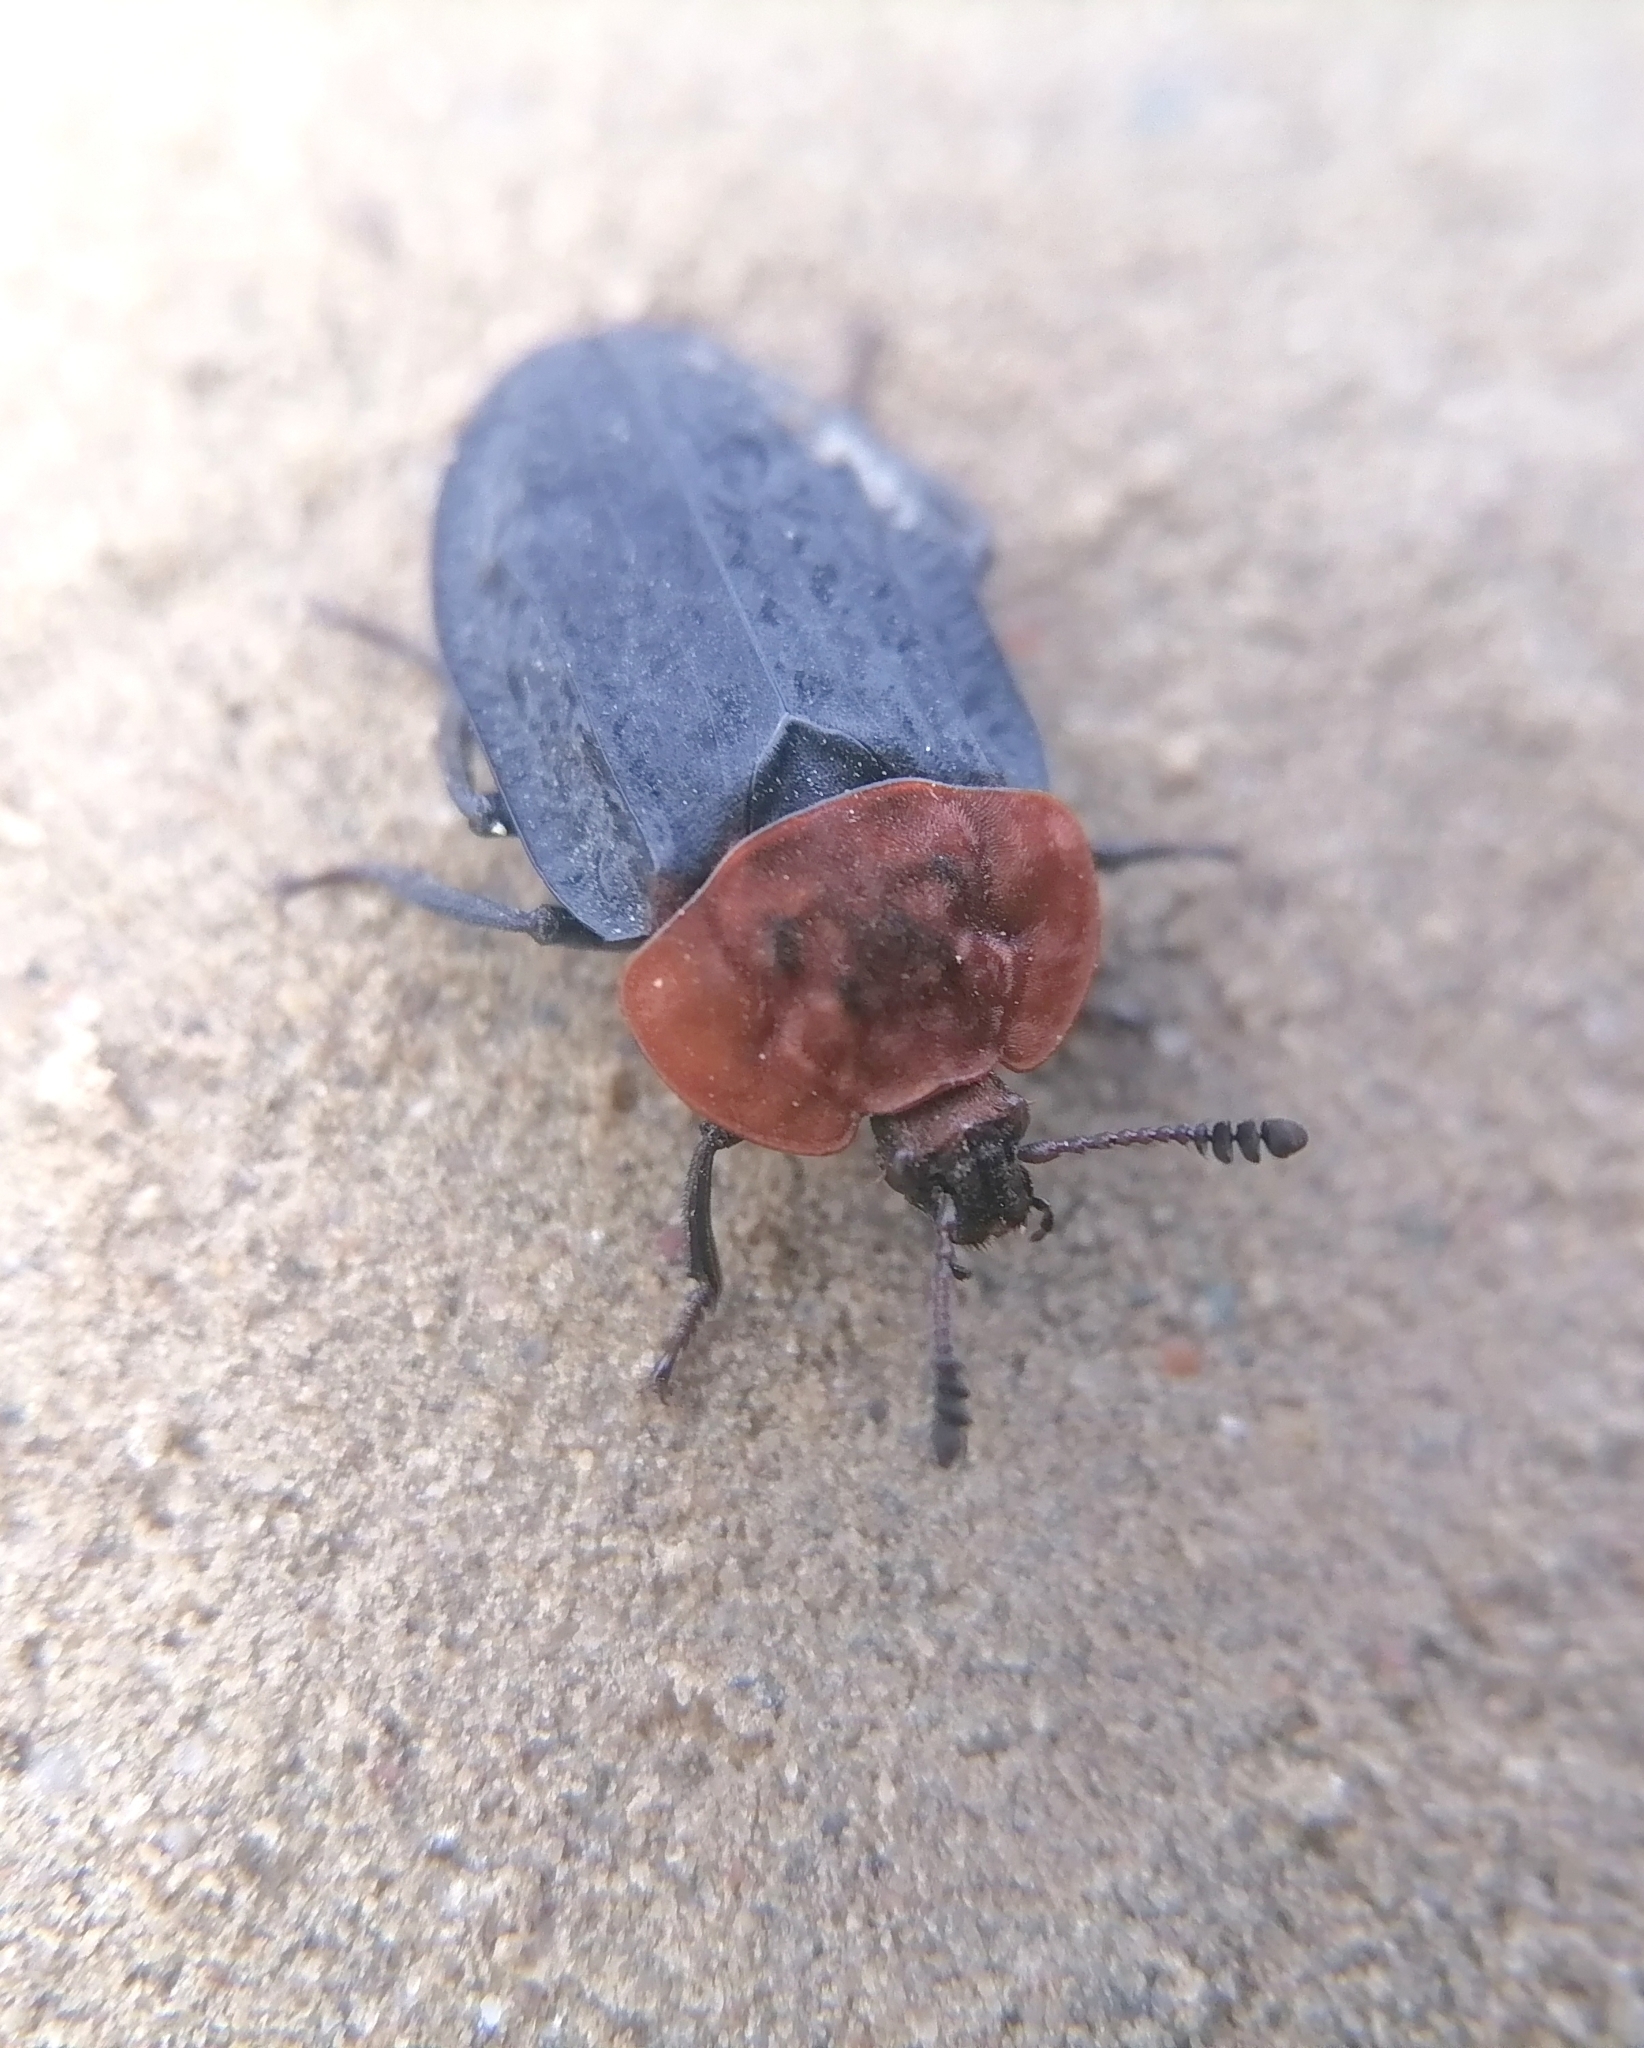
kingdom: Animalia
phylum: Arthropoda
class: Insecta
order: Coleoptera
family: Staphylinidae
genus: Oiceoptoma
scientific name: Oiceoptoma thoracicum
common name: Red-breasted carrion beetle
